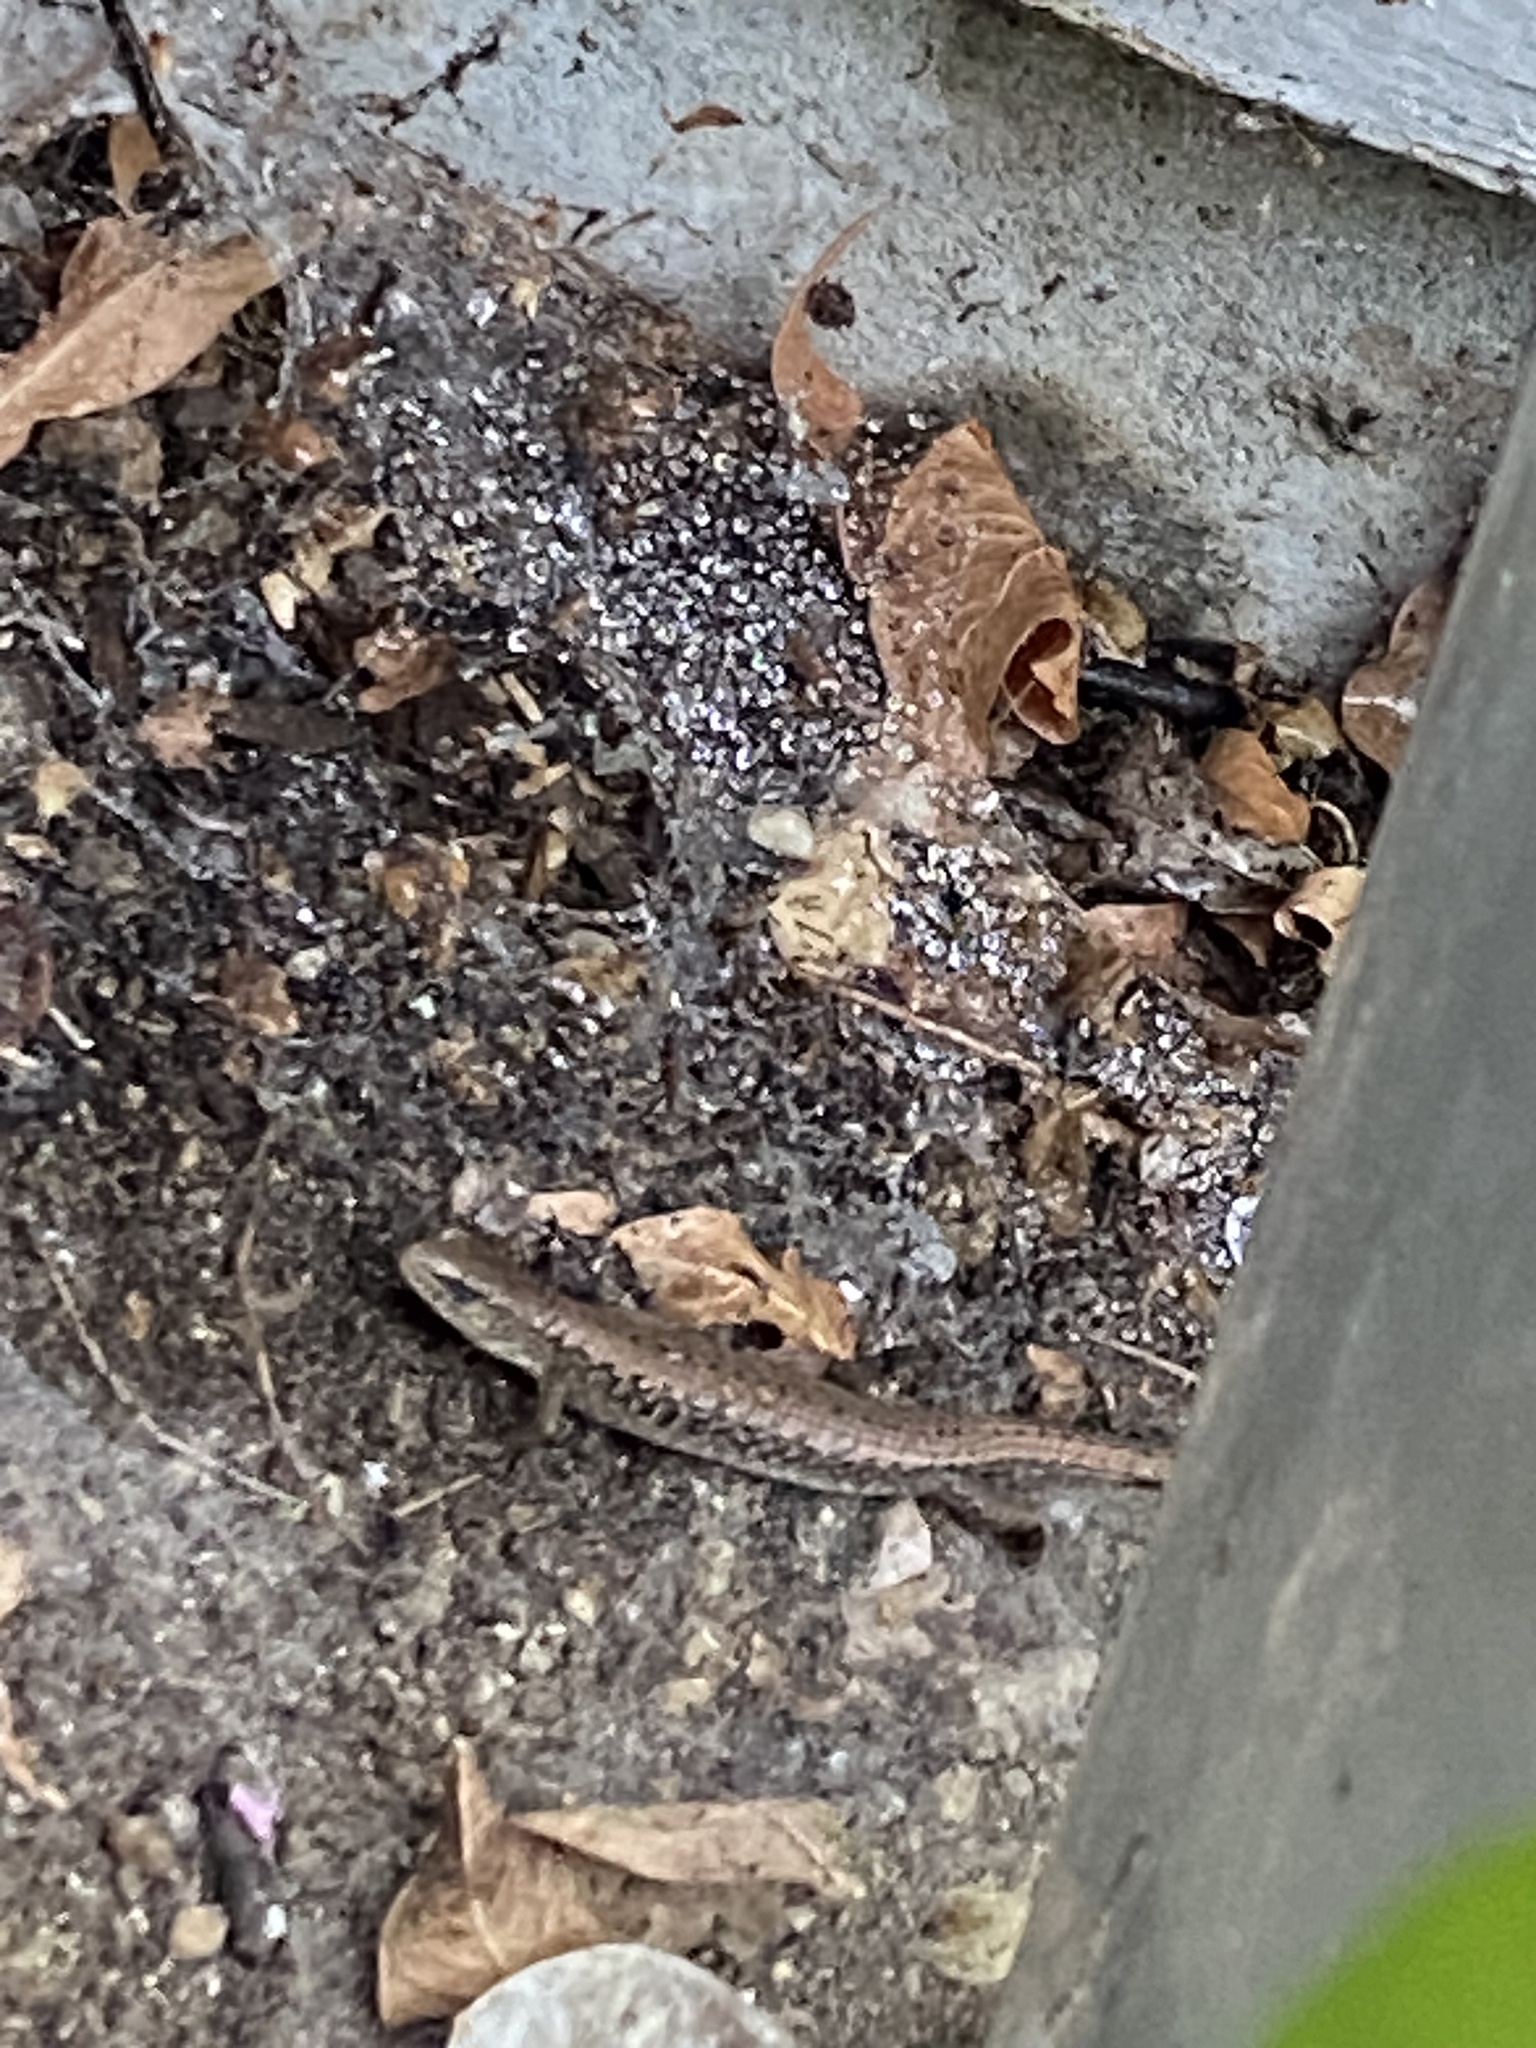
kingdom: Animalia
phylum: Chordata
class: Squamata
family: Anguidae
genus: Elgaria
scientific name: Elgaria coerulea
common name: Northern alligator lizard
